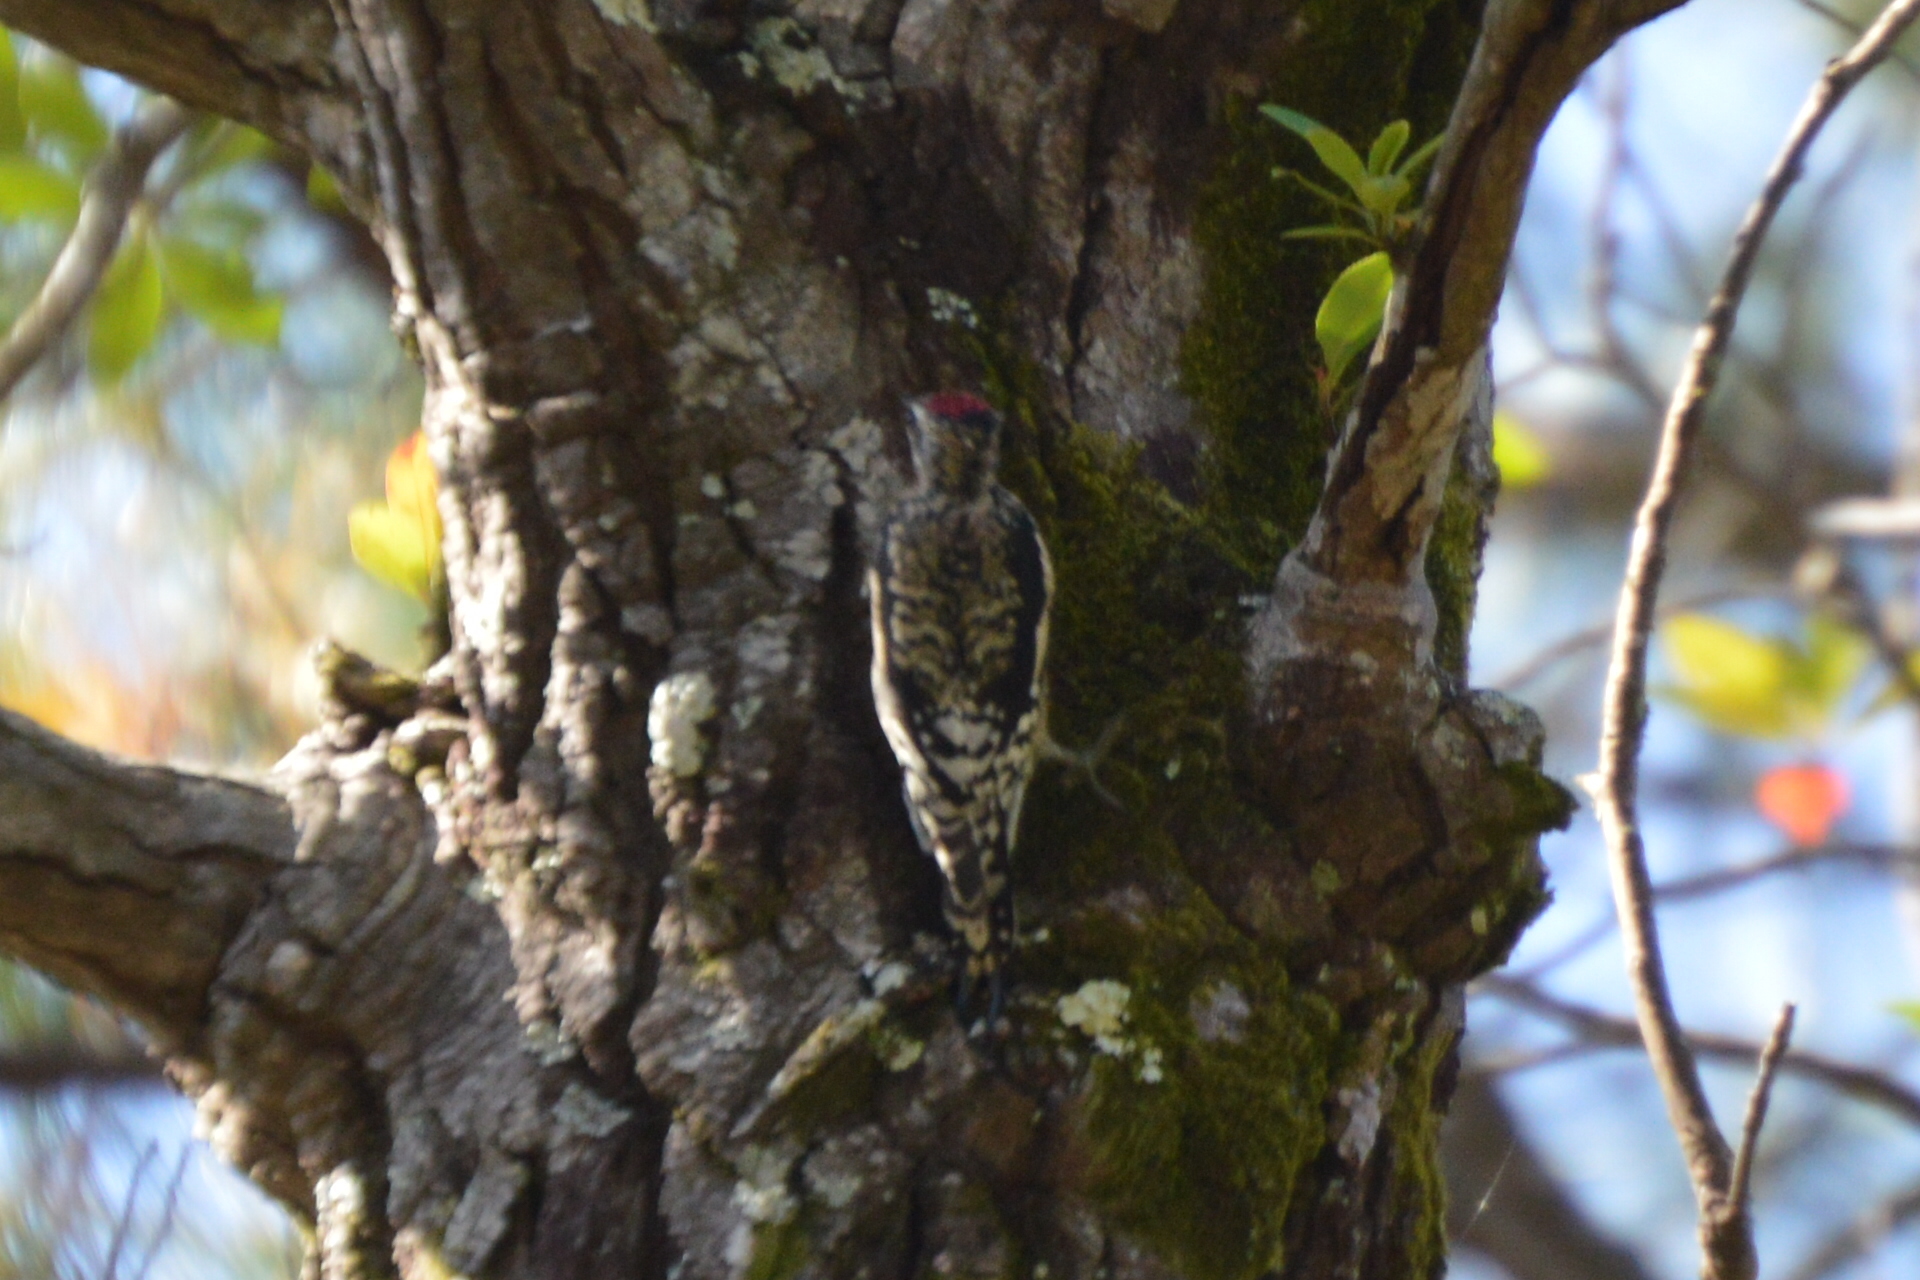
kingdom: Animalia
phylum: Chordata
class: Aves
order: Piciformes
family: Picidae
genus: Sphyrapicus
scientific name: Sphyrapicus varius
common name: Yellow-bellied sapsucker
